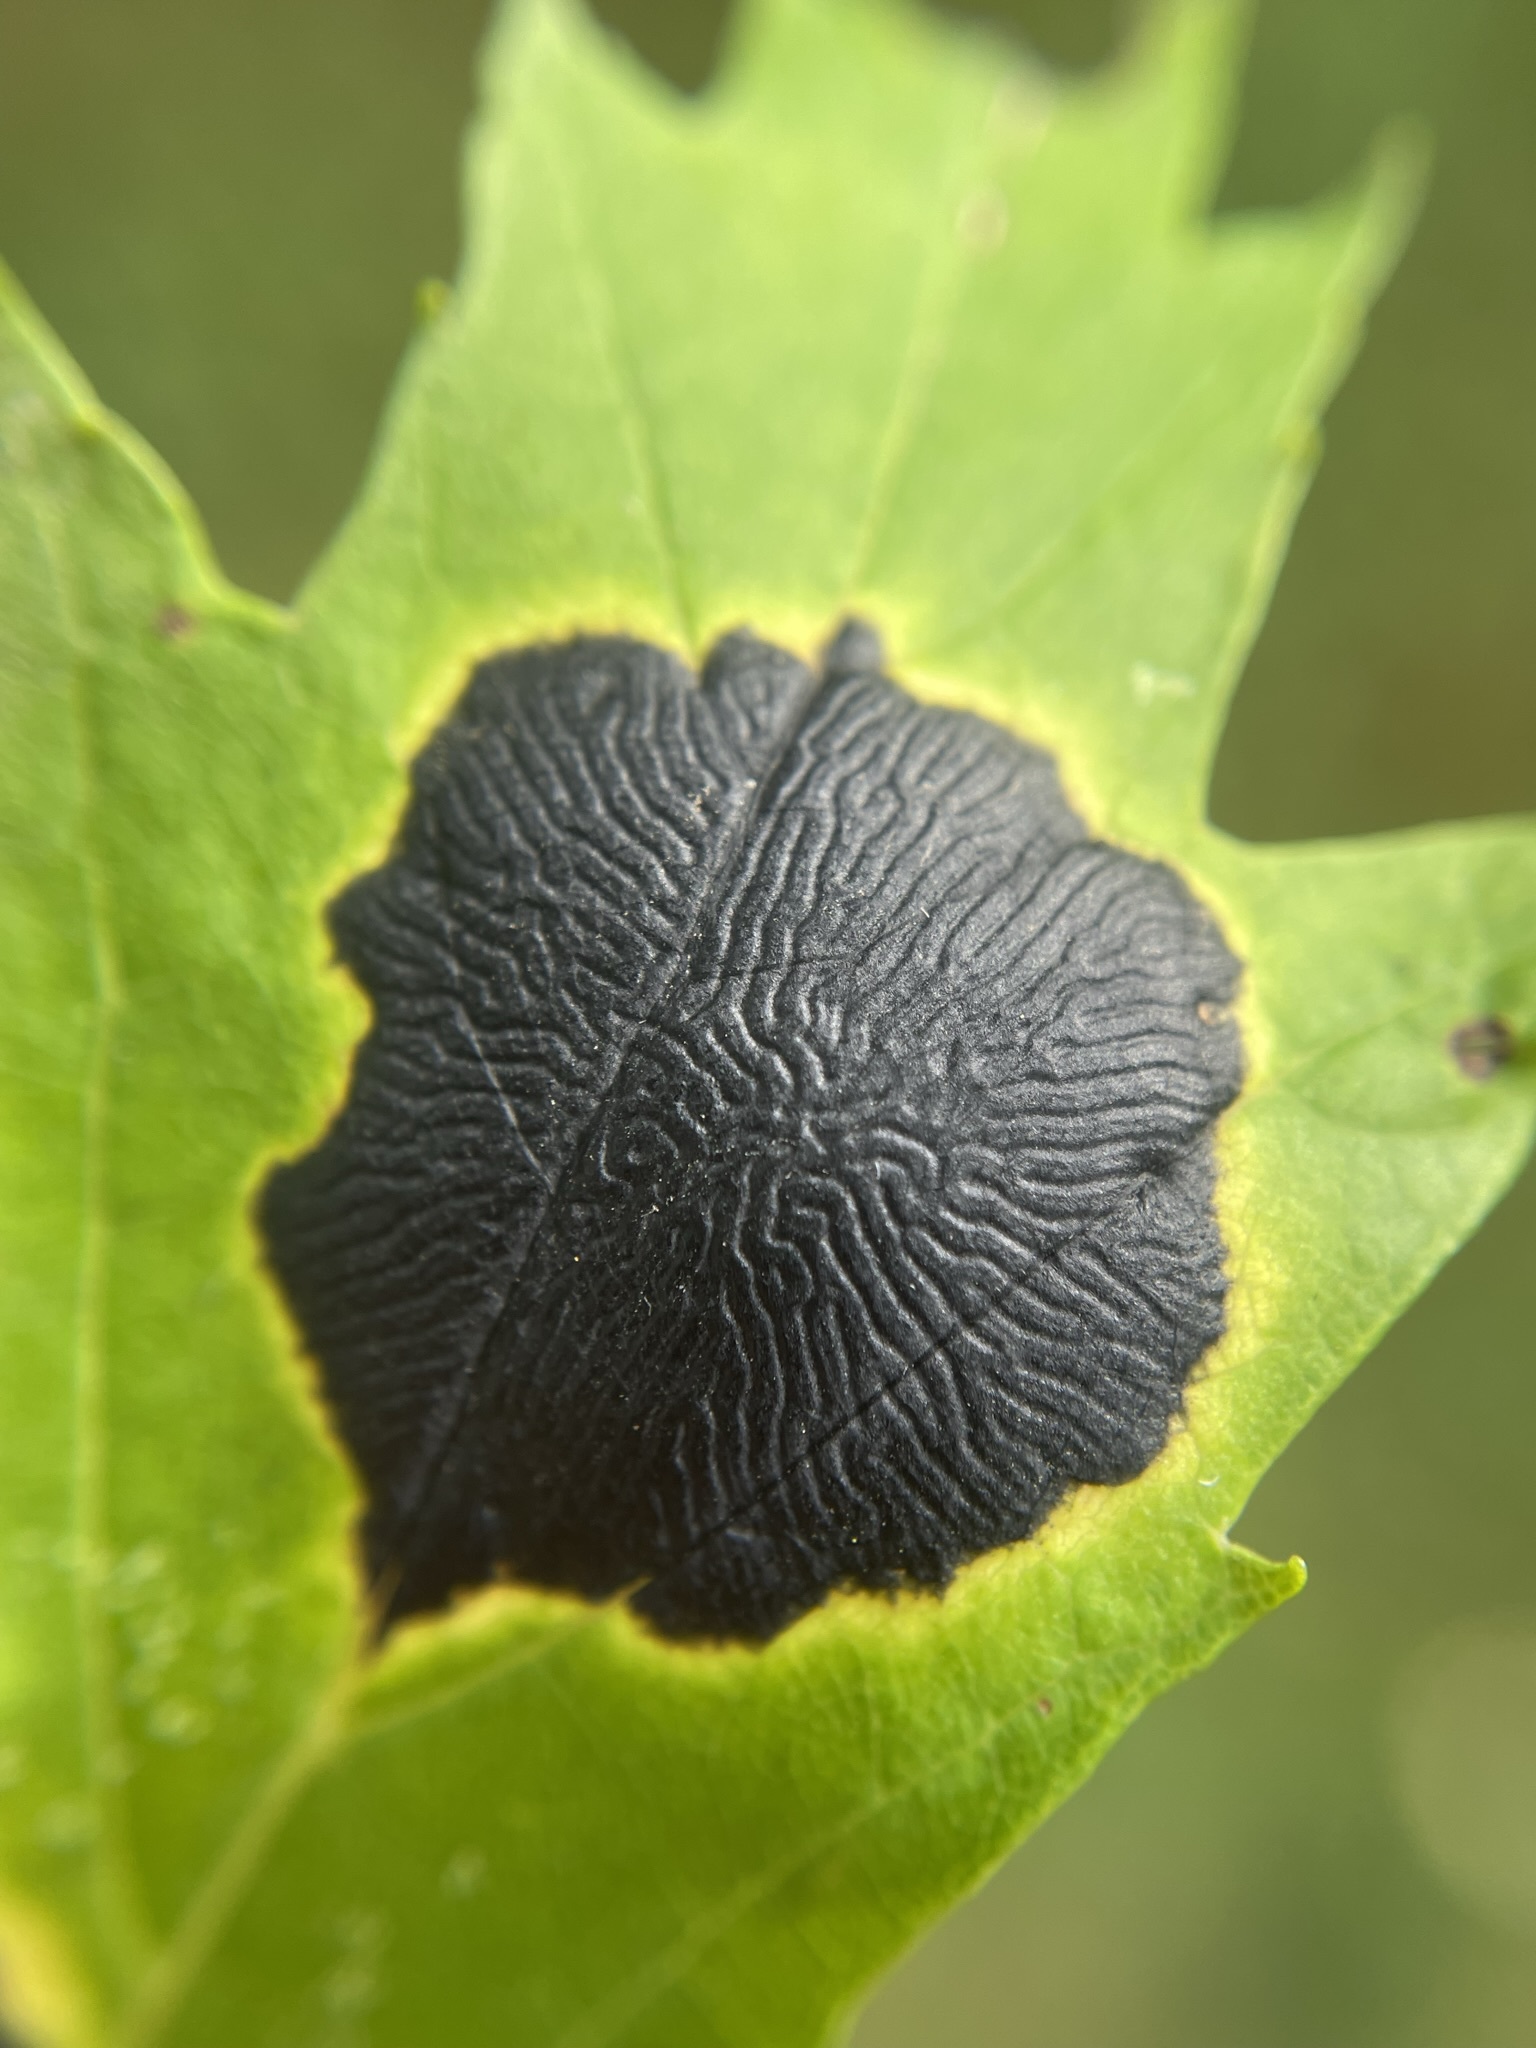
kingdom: Fungi
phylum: Ascomycota
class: Leotiomycetes
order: Rhytismatales
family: Rhytismataceae
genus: Rhytisma
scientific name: Rhytisma americanum
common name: American tar spot
